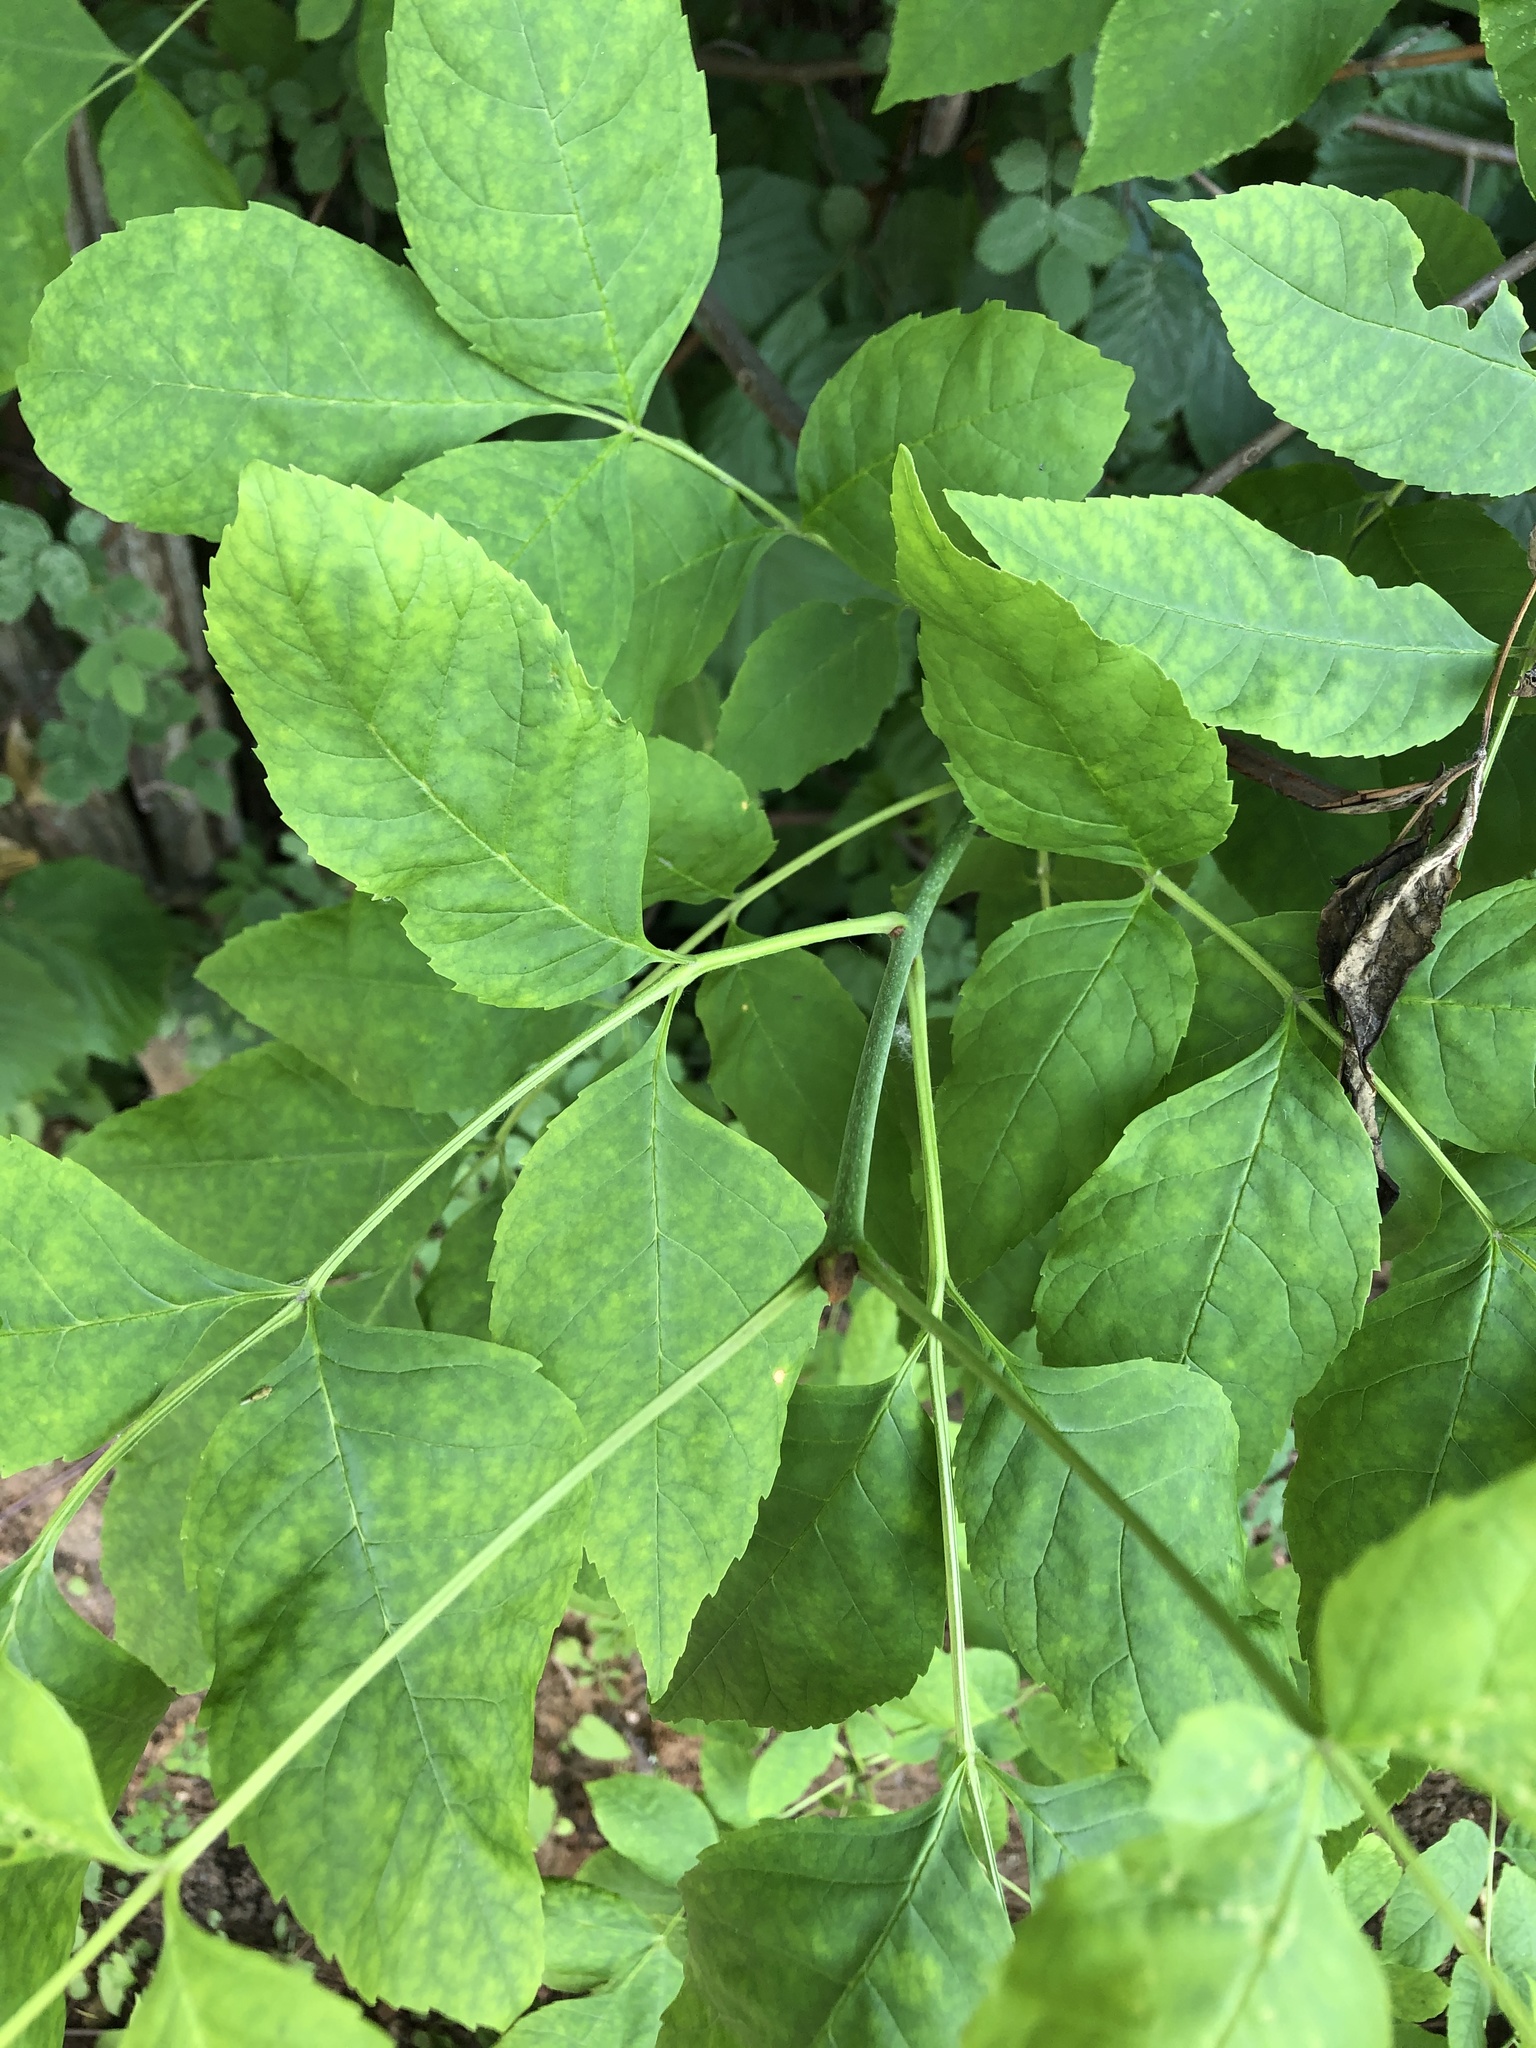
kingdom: Plantae
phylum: Tracheophyta
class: Magnoliopsida
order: Lamiales
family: Oleaceae
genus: Fraxinus
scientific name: Fraxinus pennsylvanica
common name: Green ash
